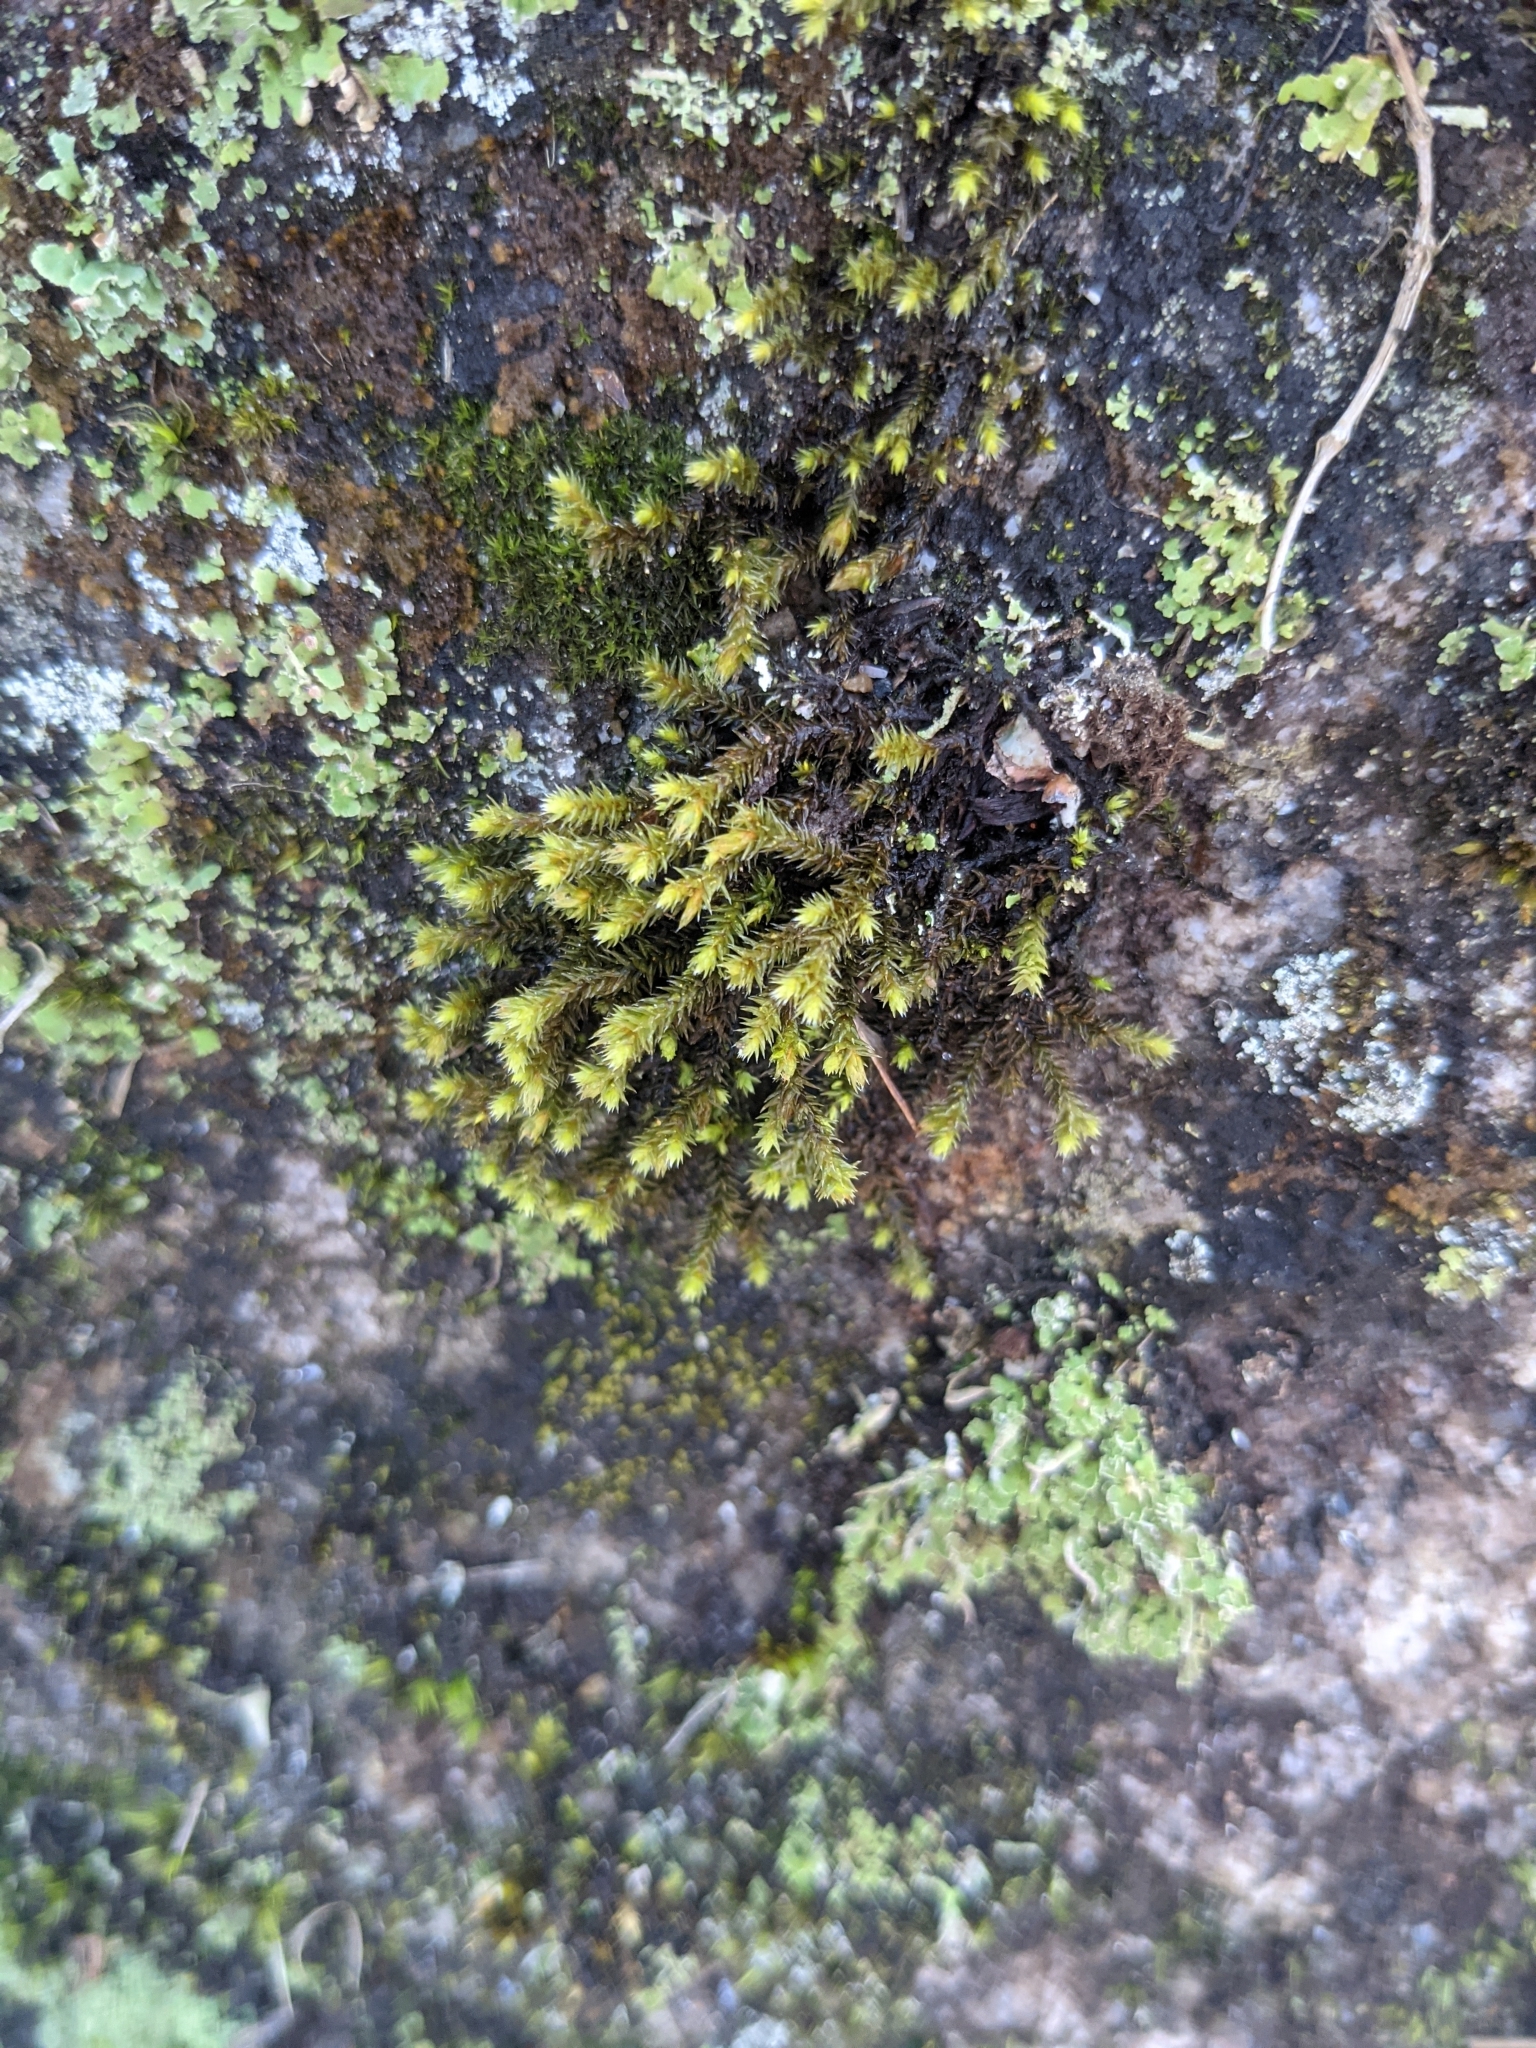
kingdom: Plantae
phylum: Bryophyta
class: Bryopsida
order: Hedwigiales
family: Hedwigiaceae
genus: Hedwigia
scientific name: Hedwigia ciliata
